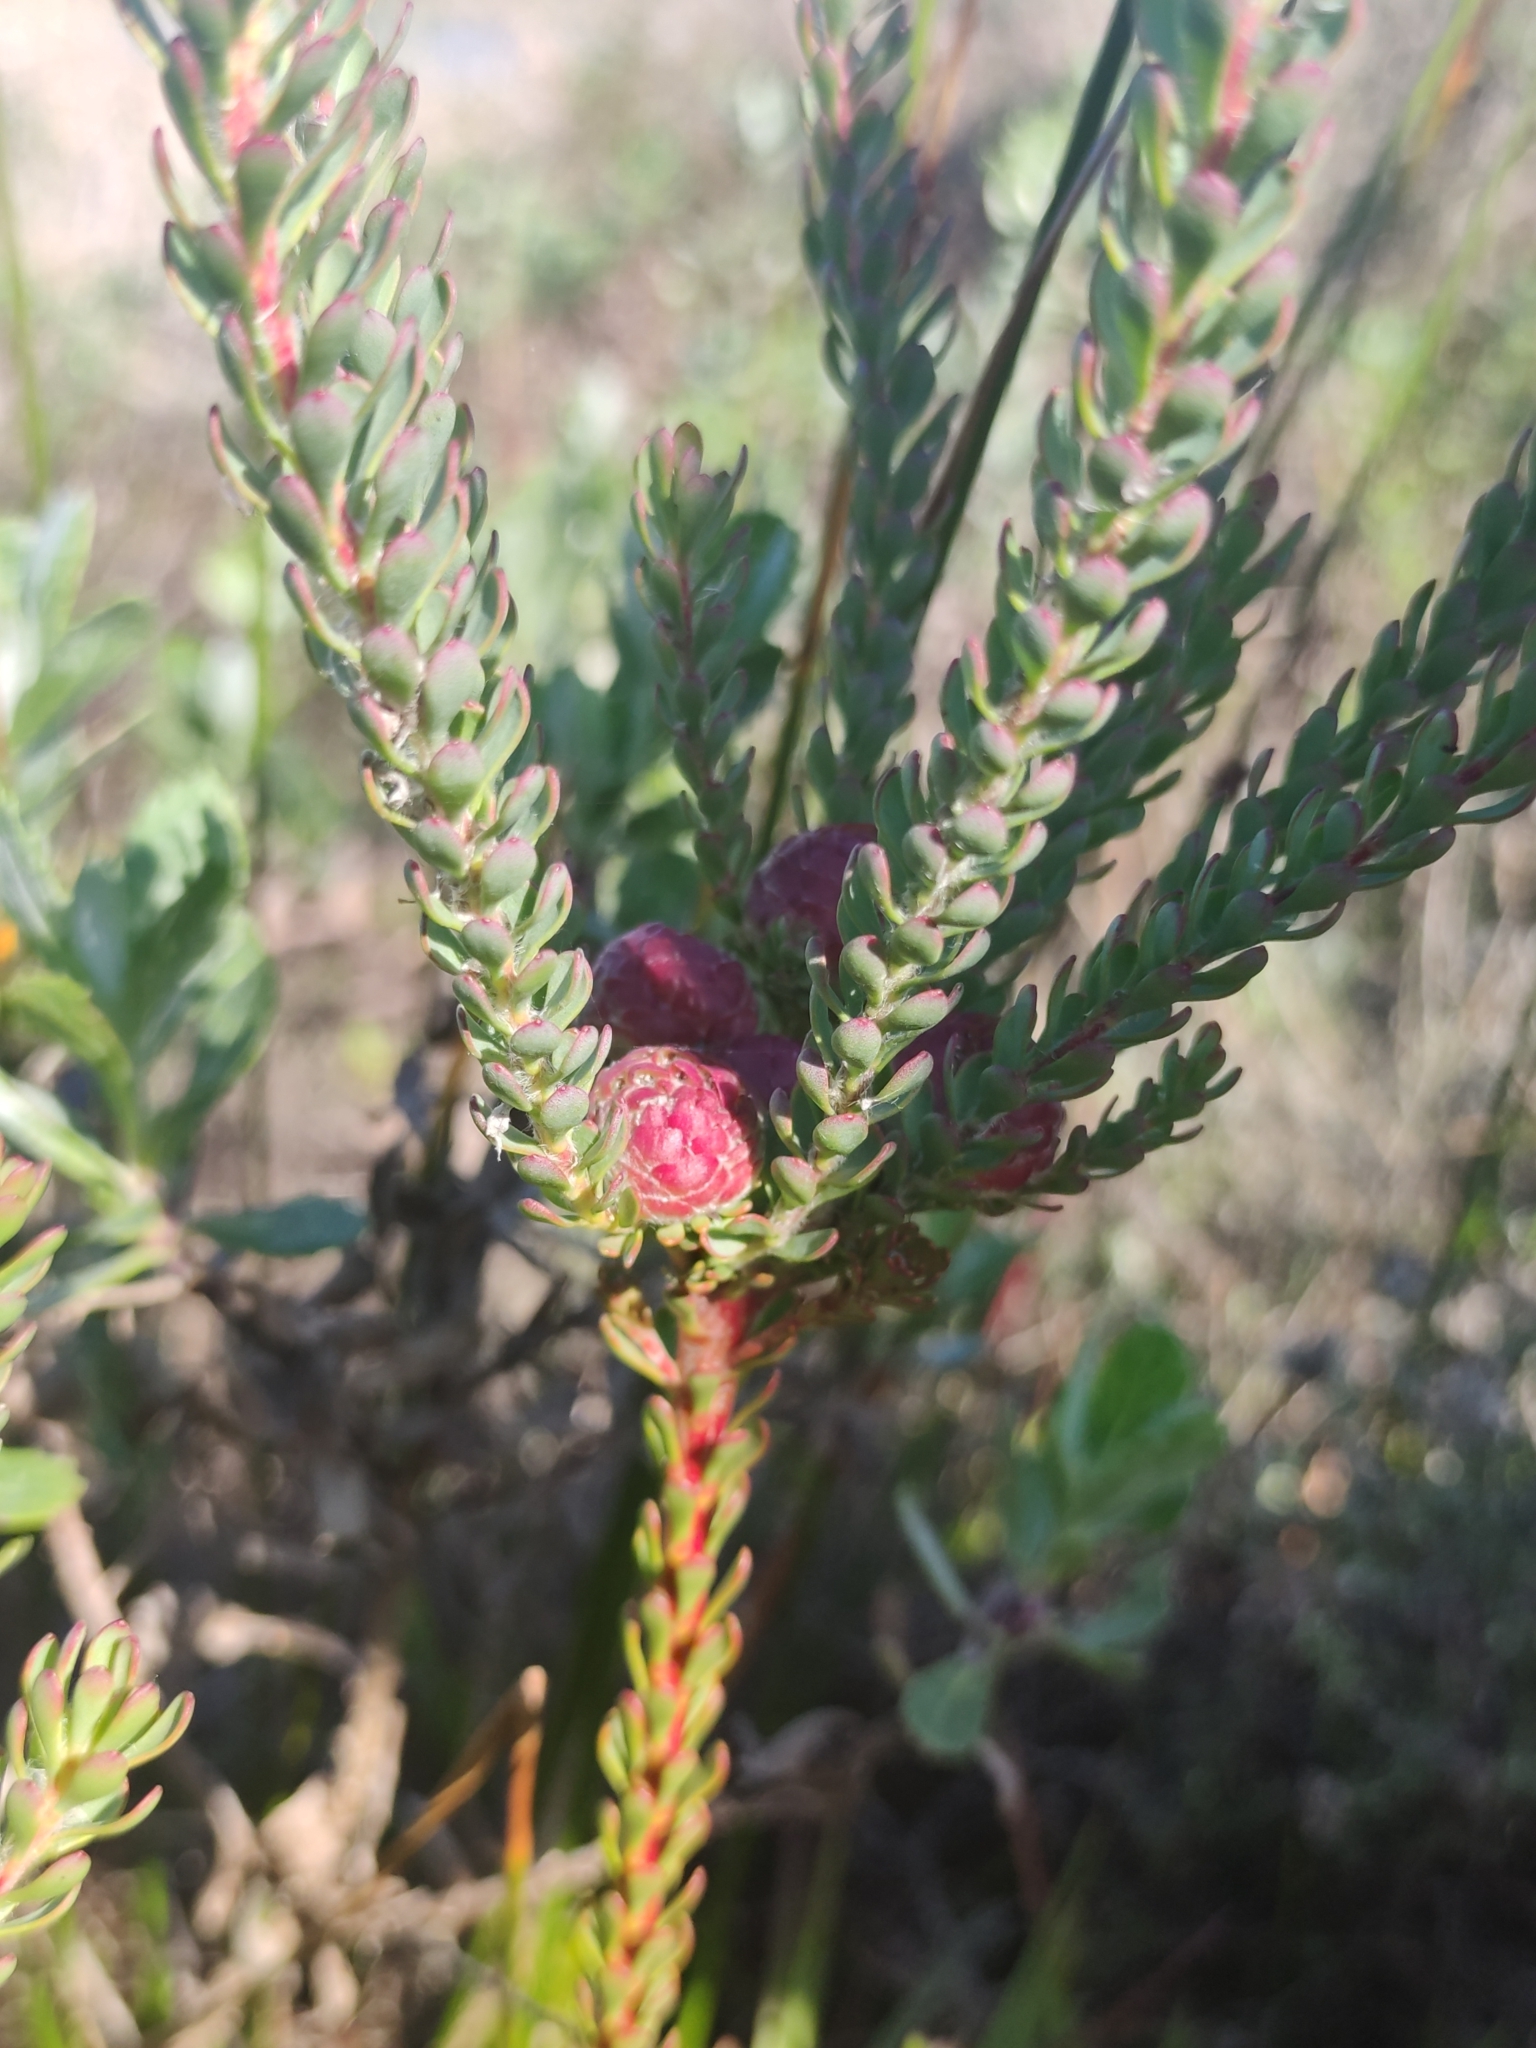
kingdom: Plantae
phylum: Tracheophyta
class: Magnoliopsida
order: Proteales
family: Proteaceae
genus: Leucadendron
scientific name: Leucadendron levisanus
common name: Cape flats conebush
